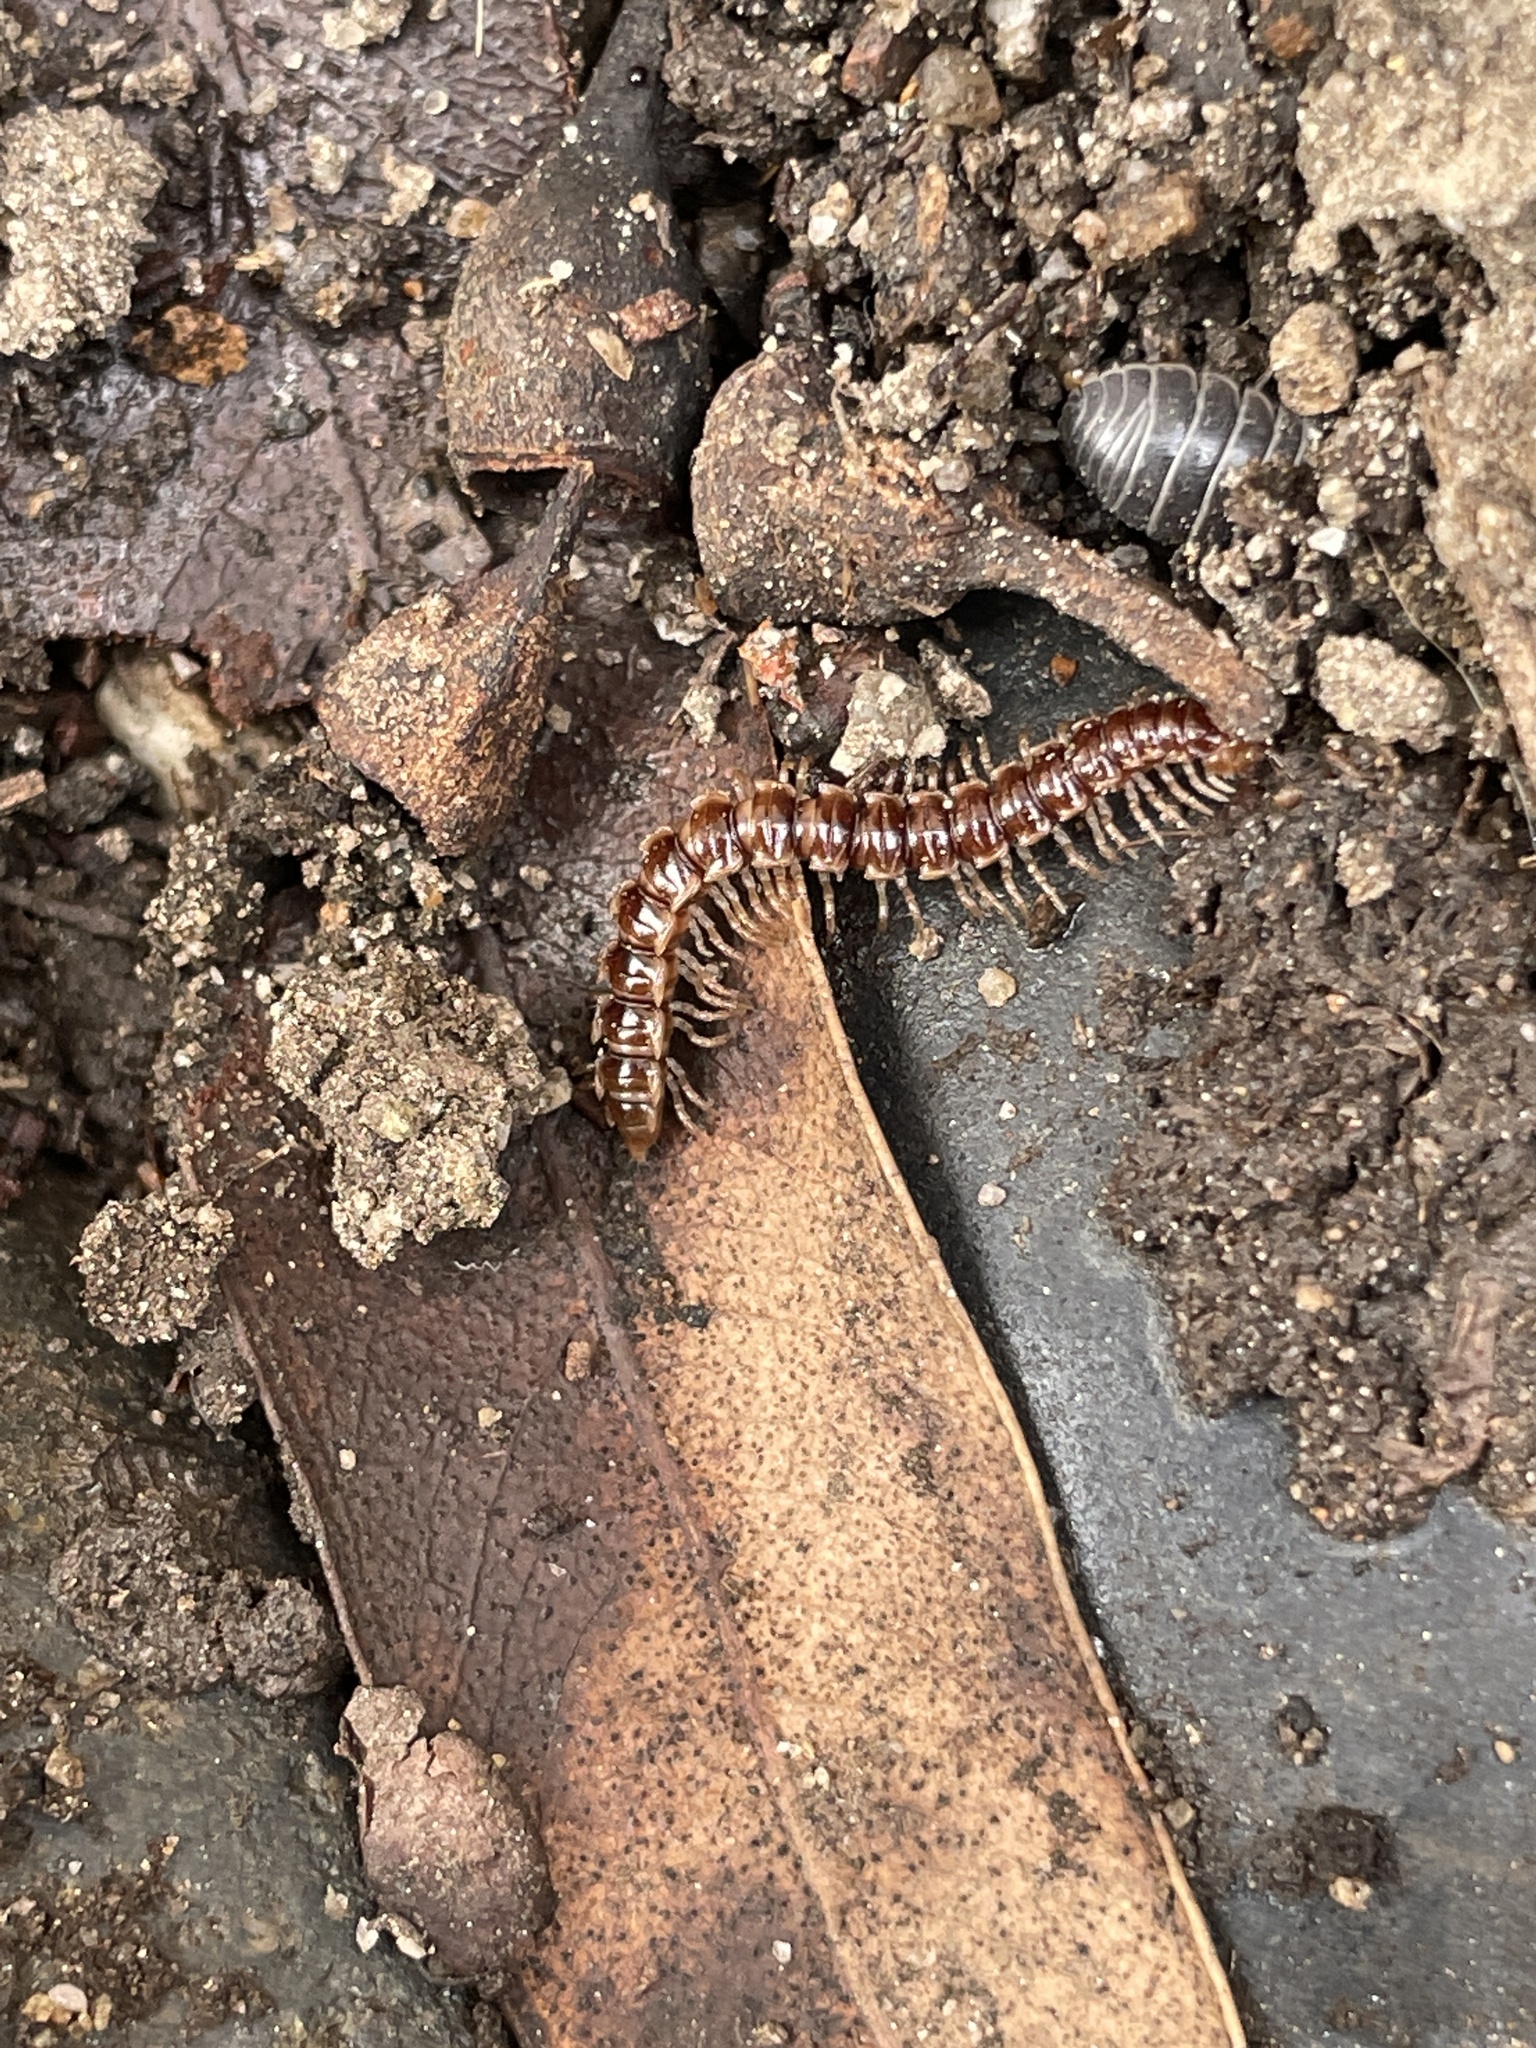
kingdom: Animalia
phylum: Arthropoda
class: Diplopoda
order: Polydesmida
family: Paradoxosomatidae
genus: Oxidus
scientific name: Oxidus gracilis
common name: Greenhouse millipede
